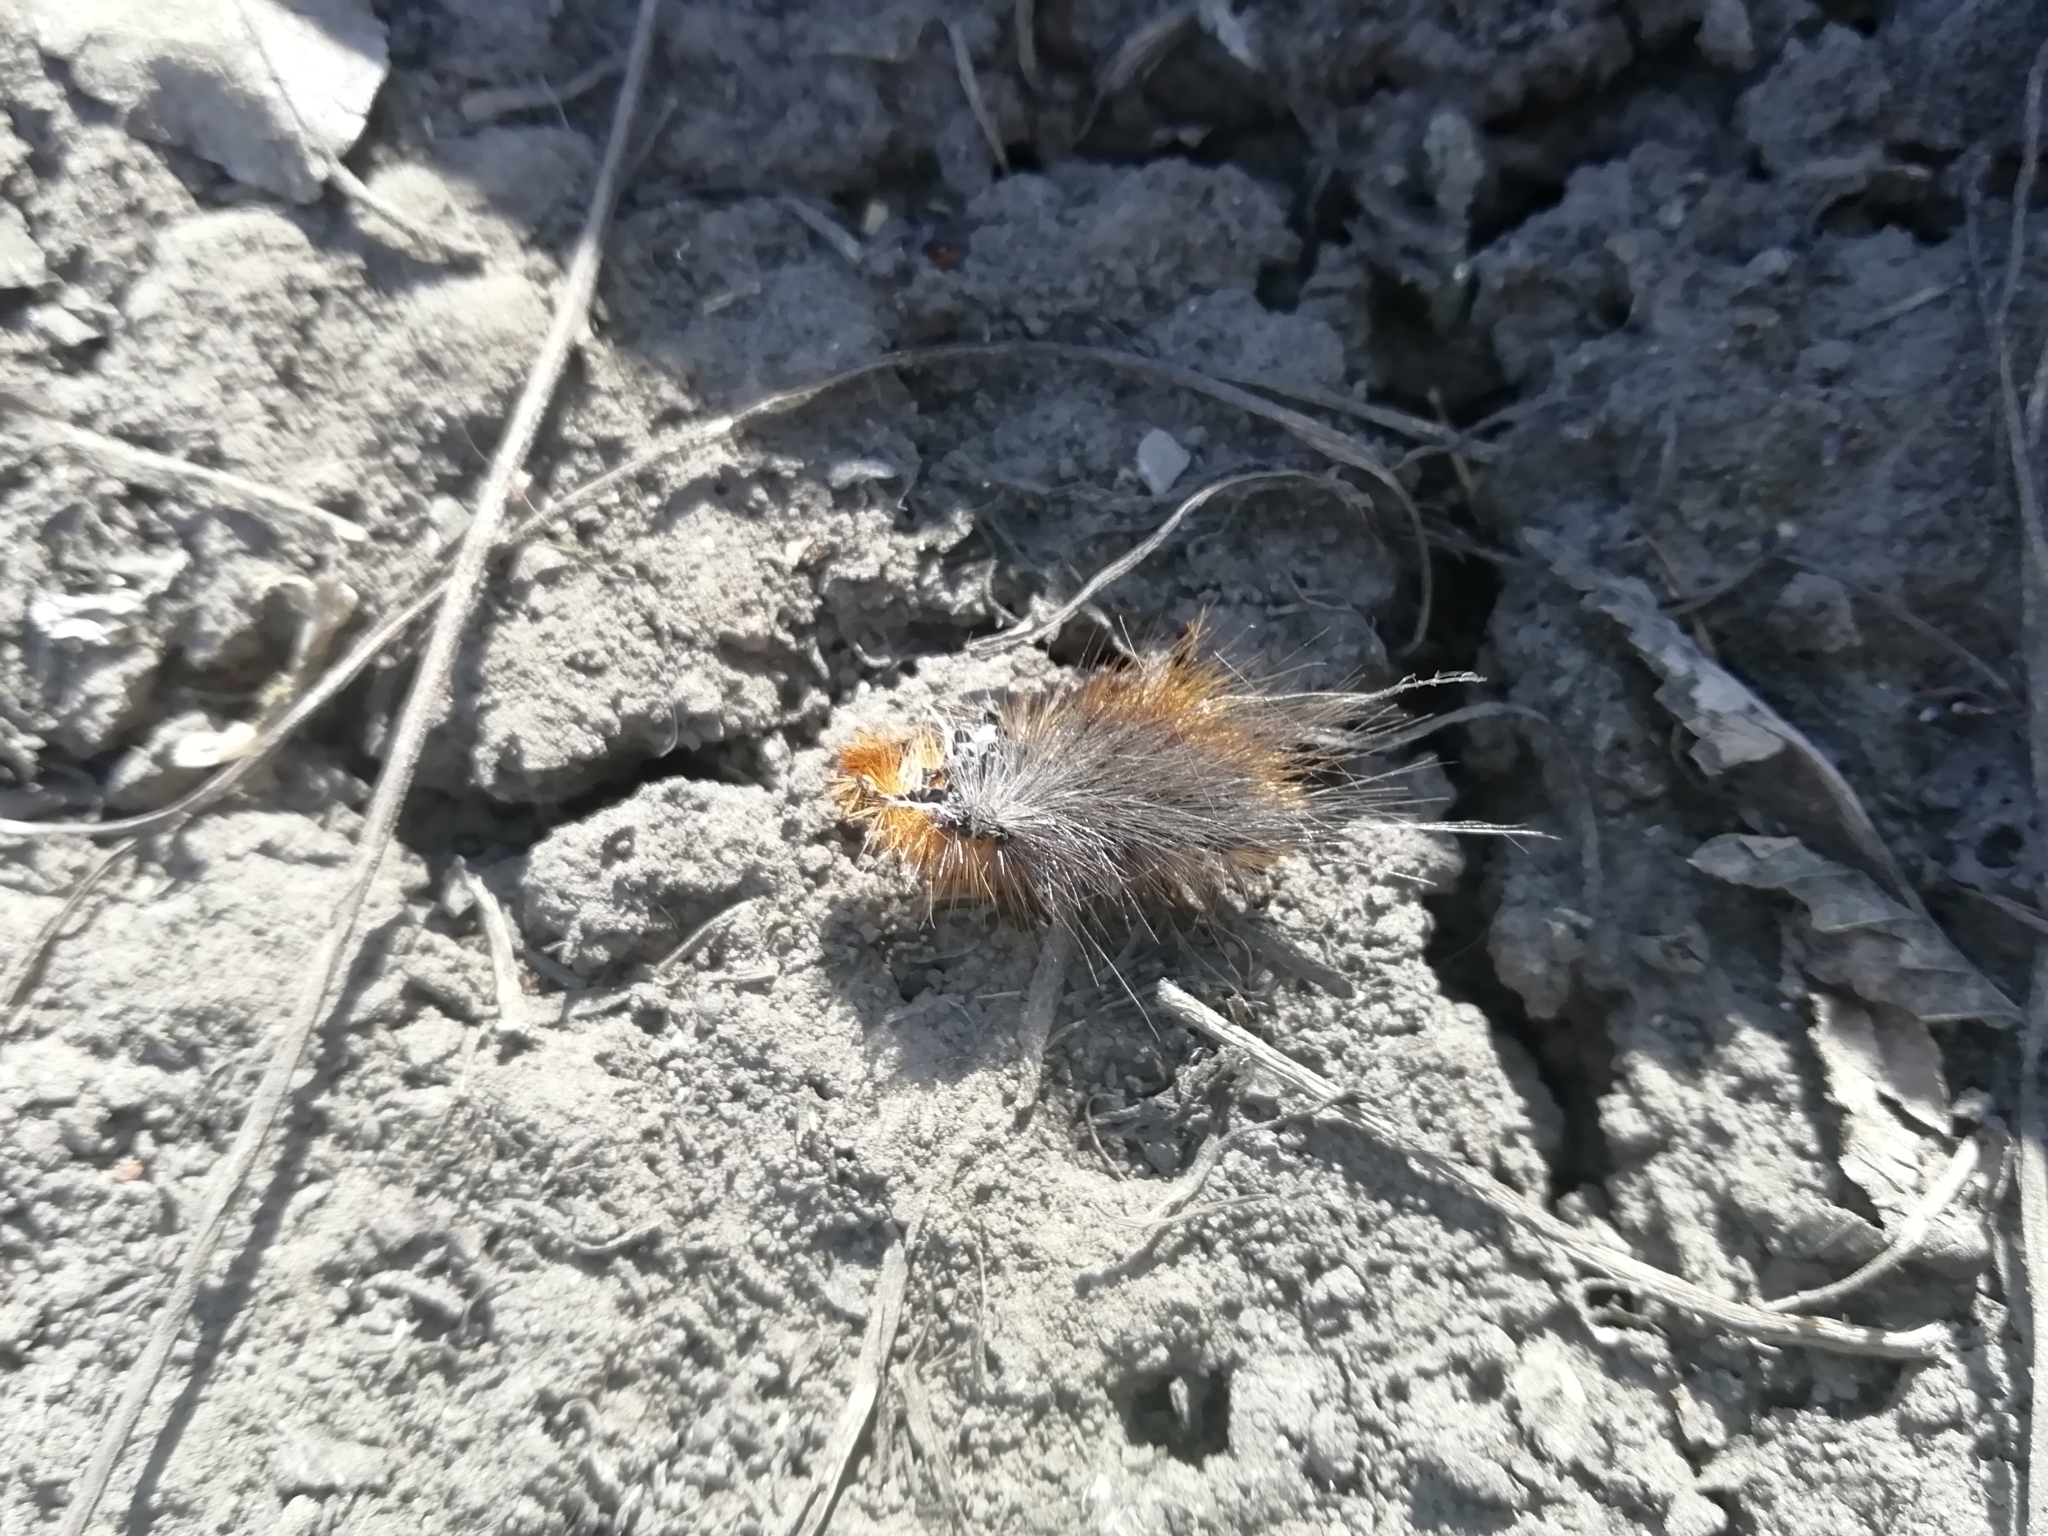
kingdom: Animalia
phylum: Arthropoda
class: Insecta
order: Lepidoptera
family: Erebidae
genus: Arctia
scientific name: Arctia caja
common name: Garden tiger
